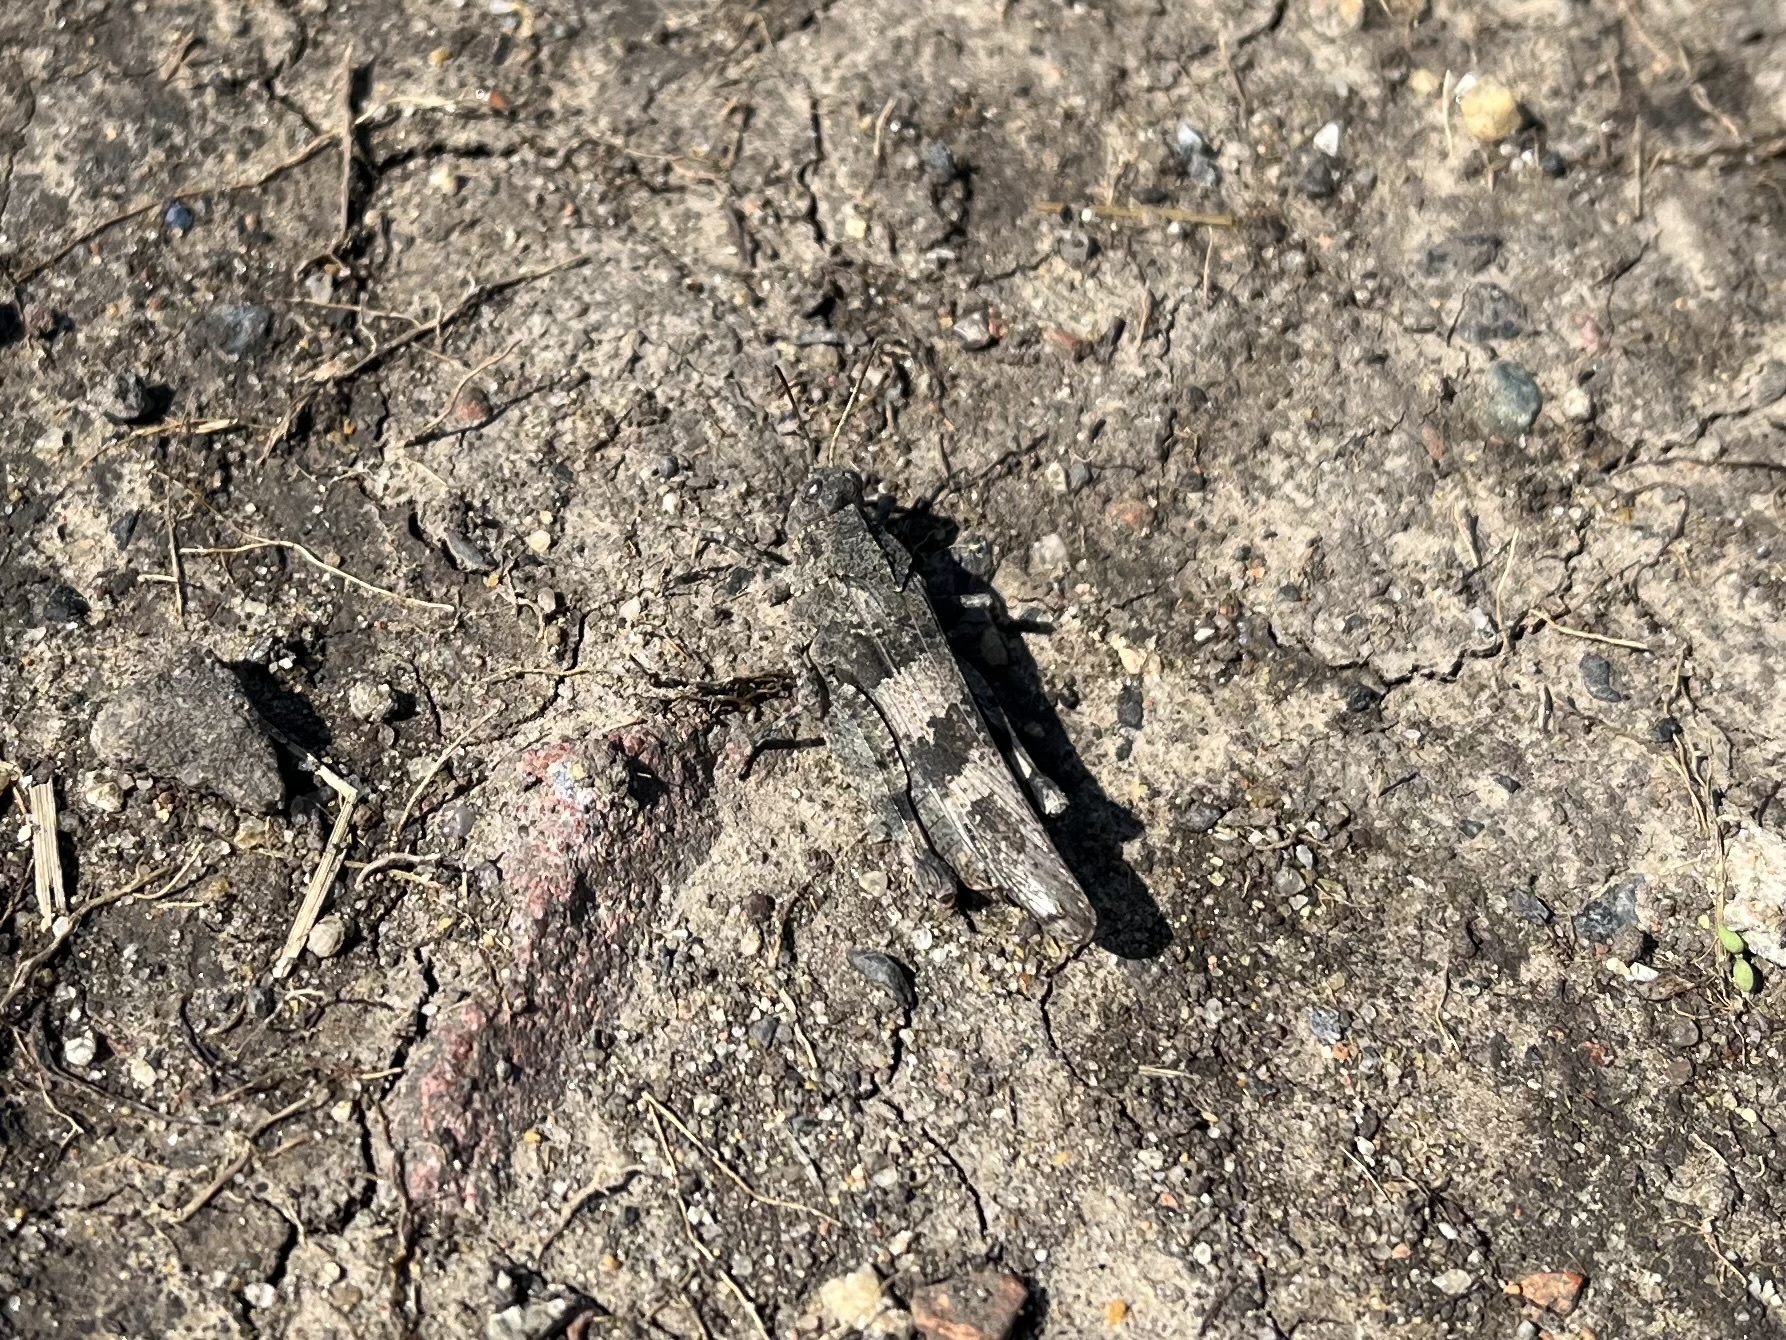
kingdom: Animalia
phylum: Arthropoda
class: Insecta
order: Orthoptera
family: Acrididae
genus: Oedipoda
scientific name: Oedipoda caerulescens
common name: Blue-winged grasshopper
